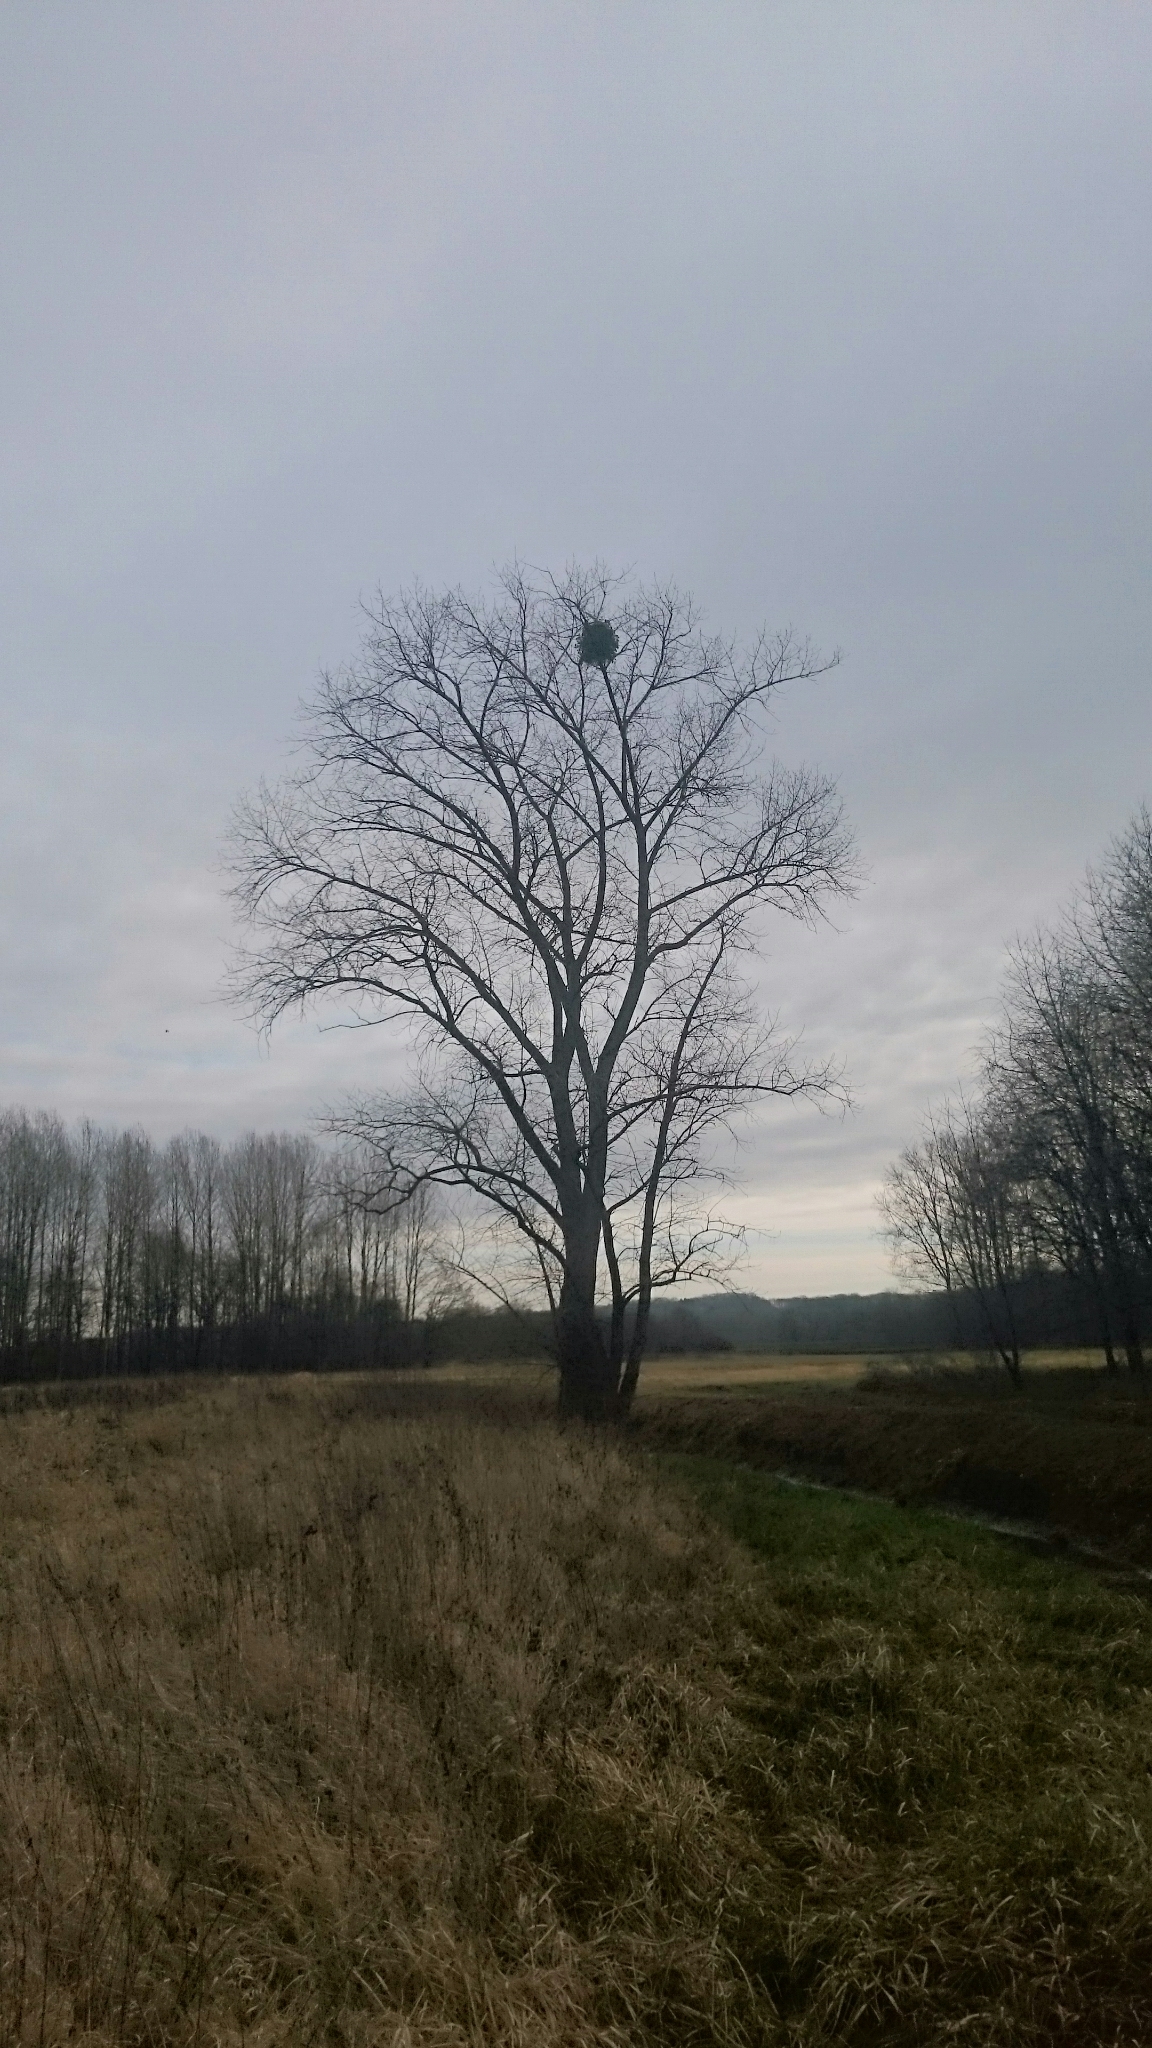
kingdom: Plantae
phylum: Tracheophyta
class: Magnoliopsida
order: Santalales
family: Viscaceae
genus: Viscum
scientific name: Viscum album
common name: Mistletoe
